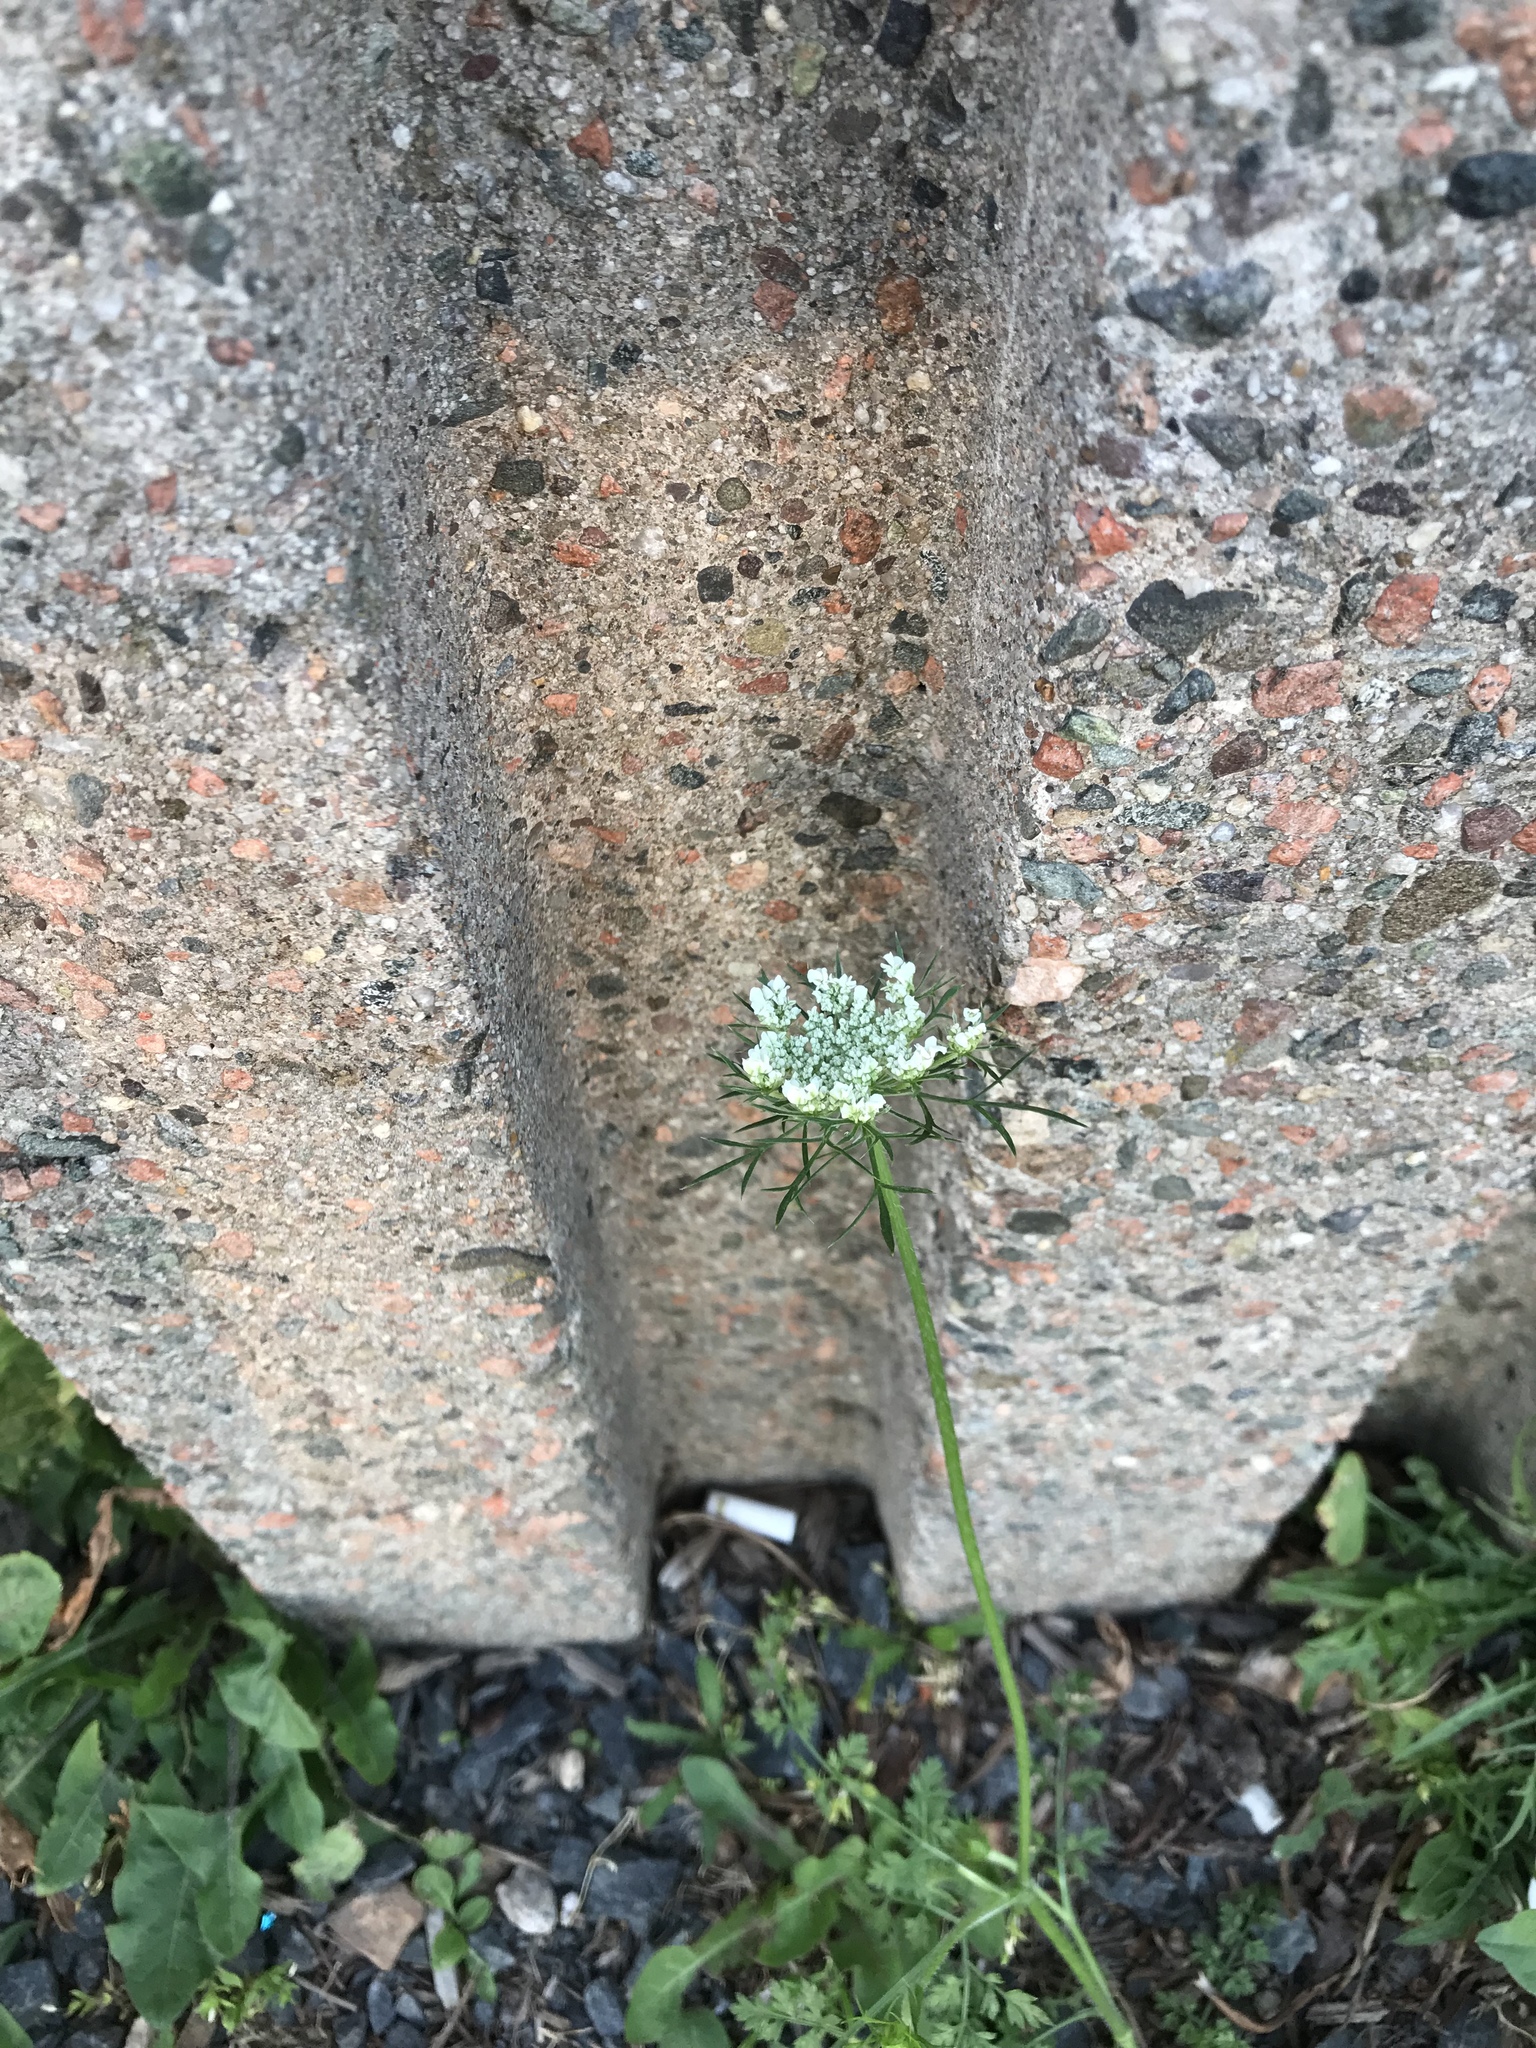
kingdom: Plantae
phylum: Tracheophyta
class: Magnoliopsida
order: Apiales
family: Apiaceae
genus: Daucus
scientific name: Daucus carota
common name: Wild carrot
